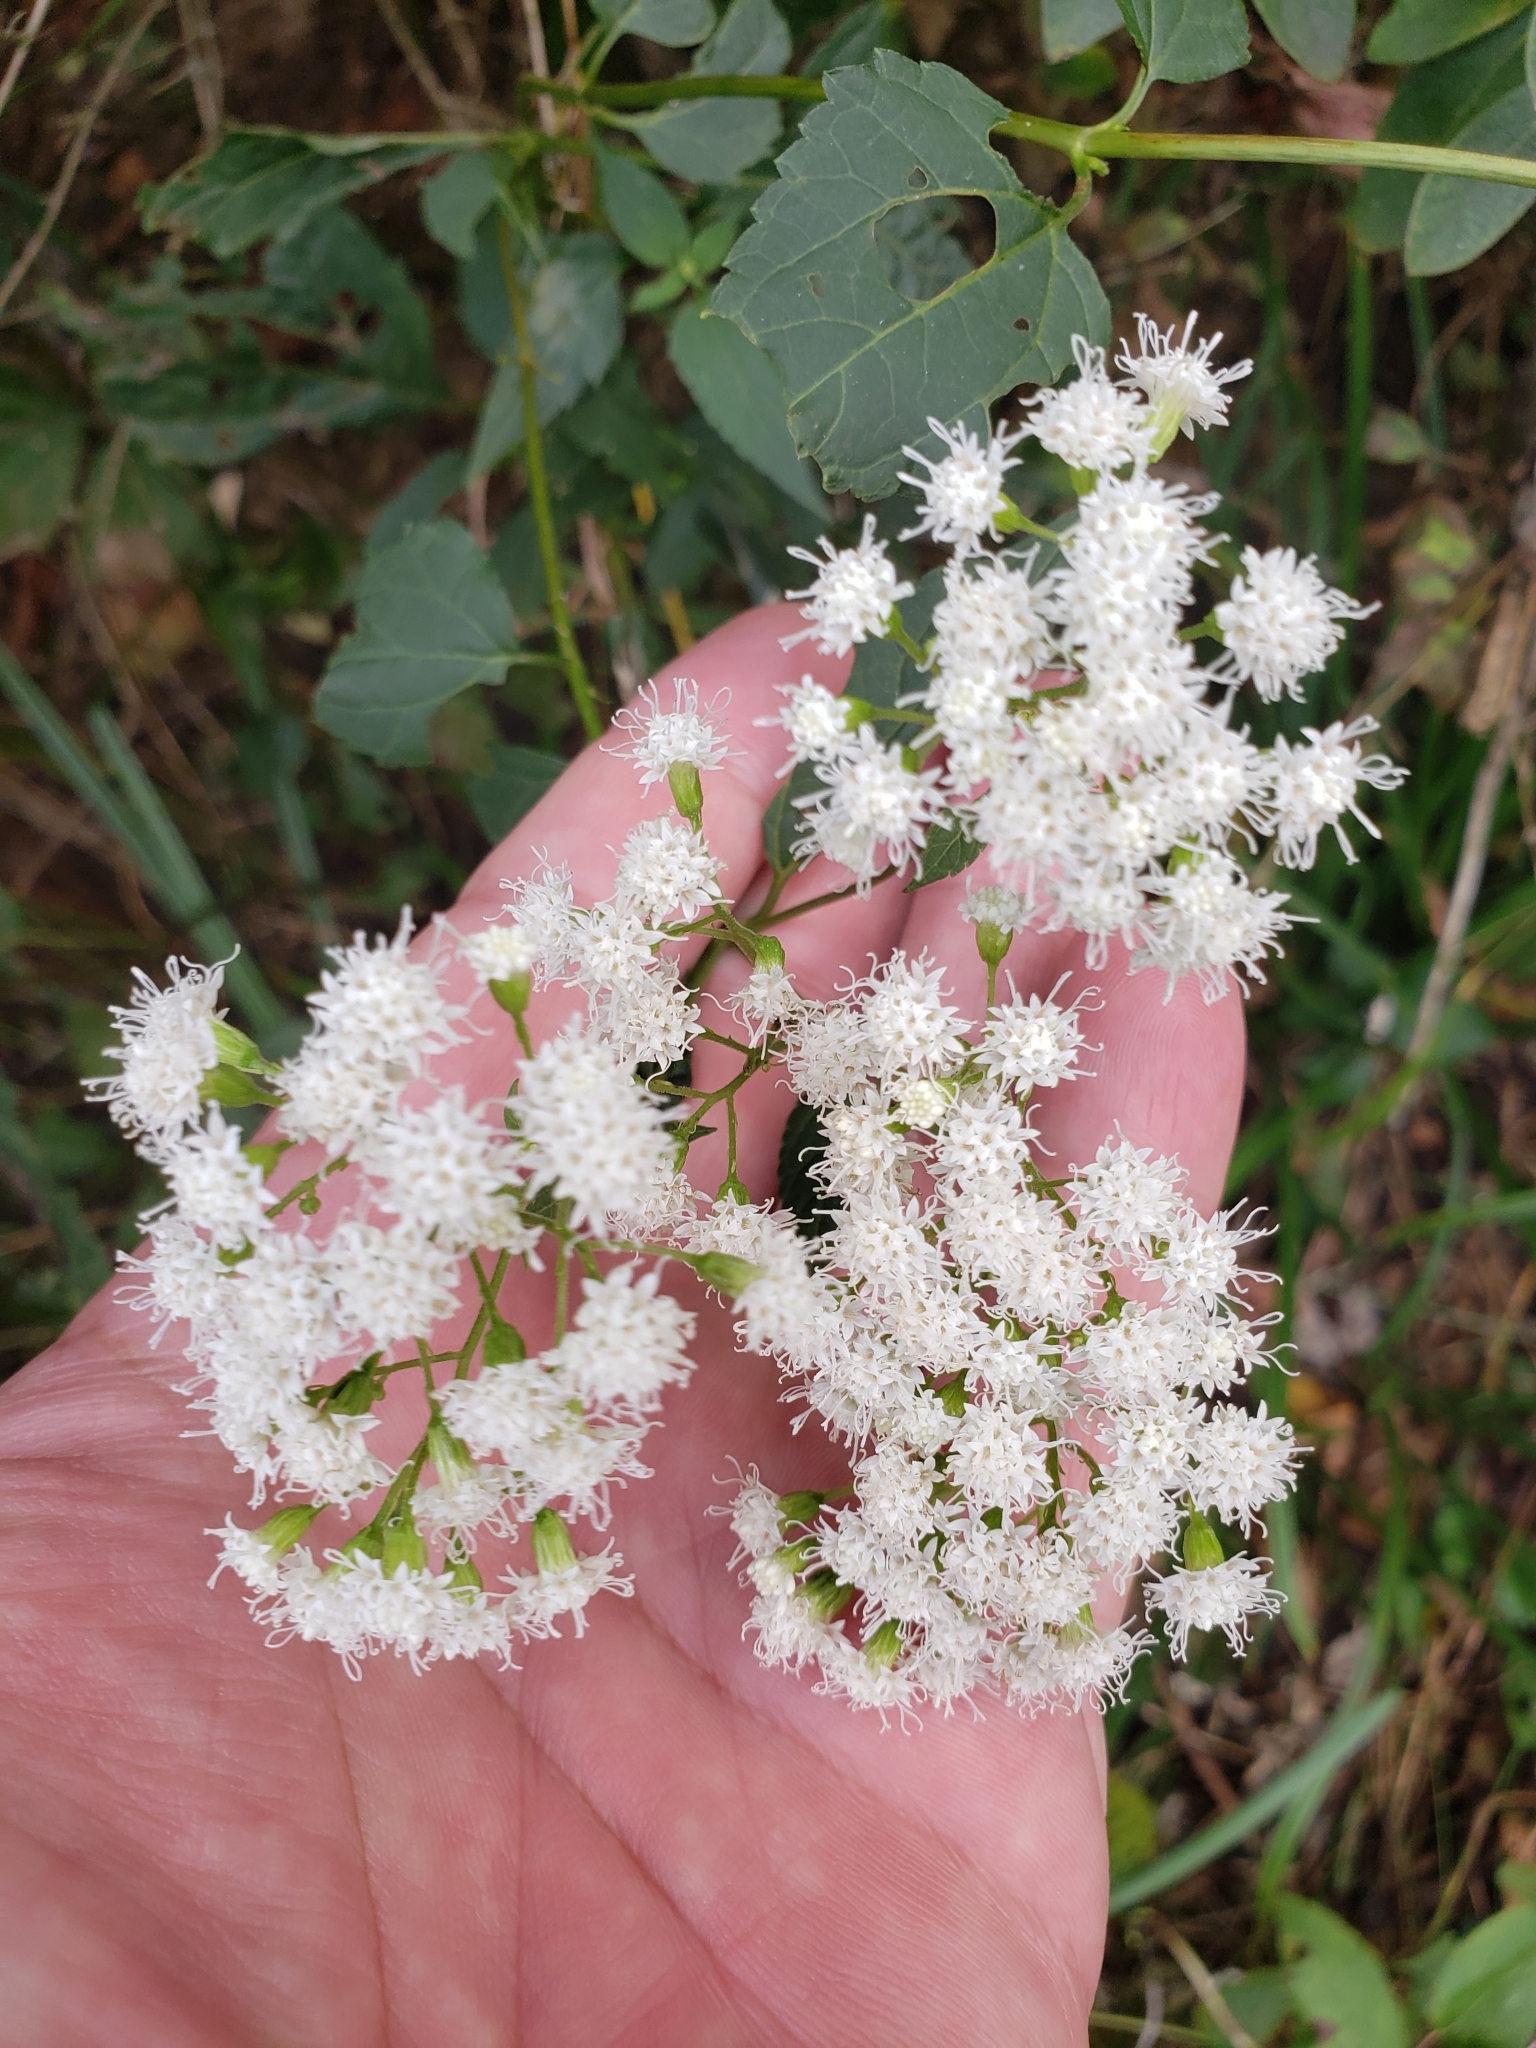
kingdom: Plantae
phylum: Tracheophyta
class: Magnoliopsida
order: Asterales
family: Asteraceae
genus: Ageratina
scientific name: Ageratina altissima
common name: White snakeroot
